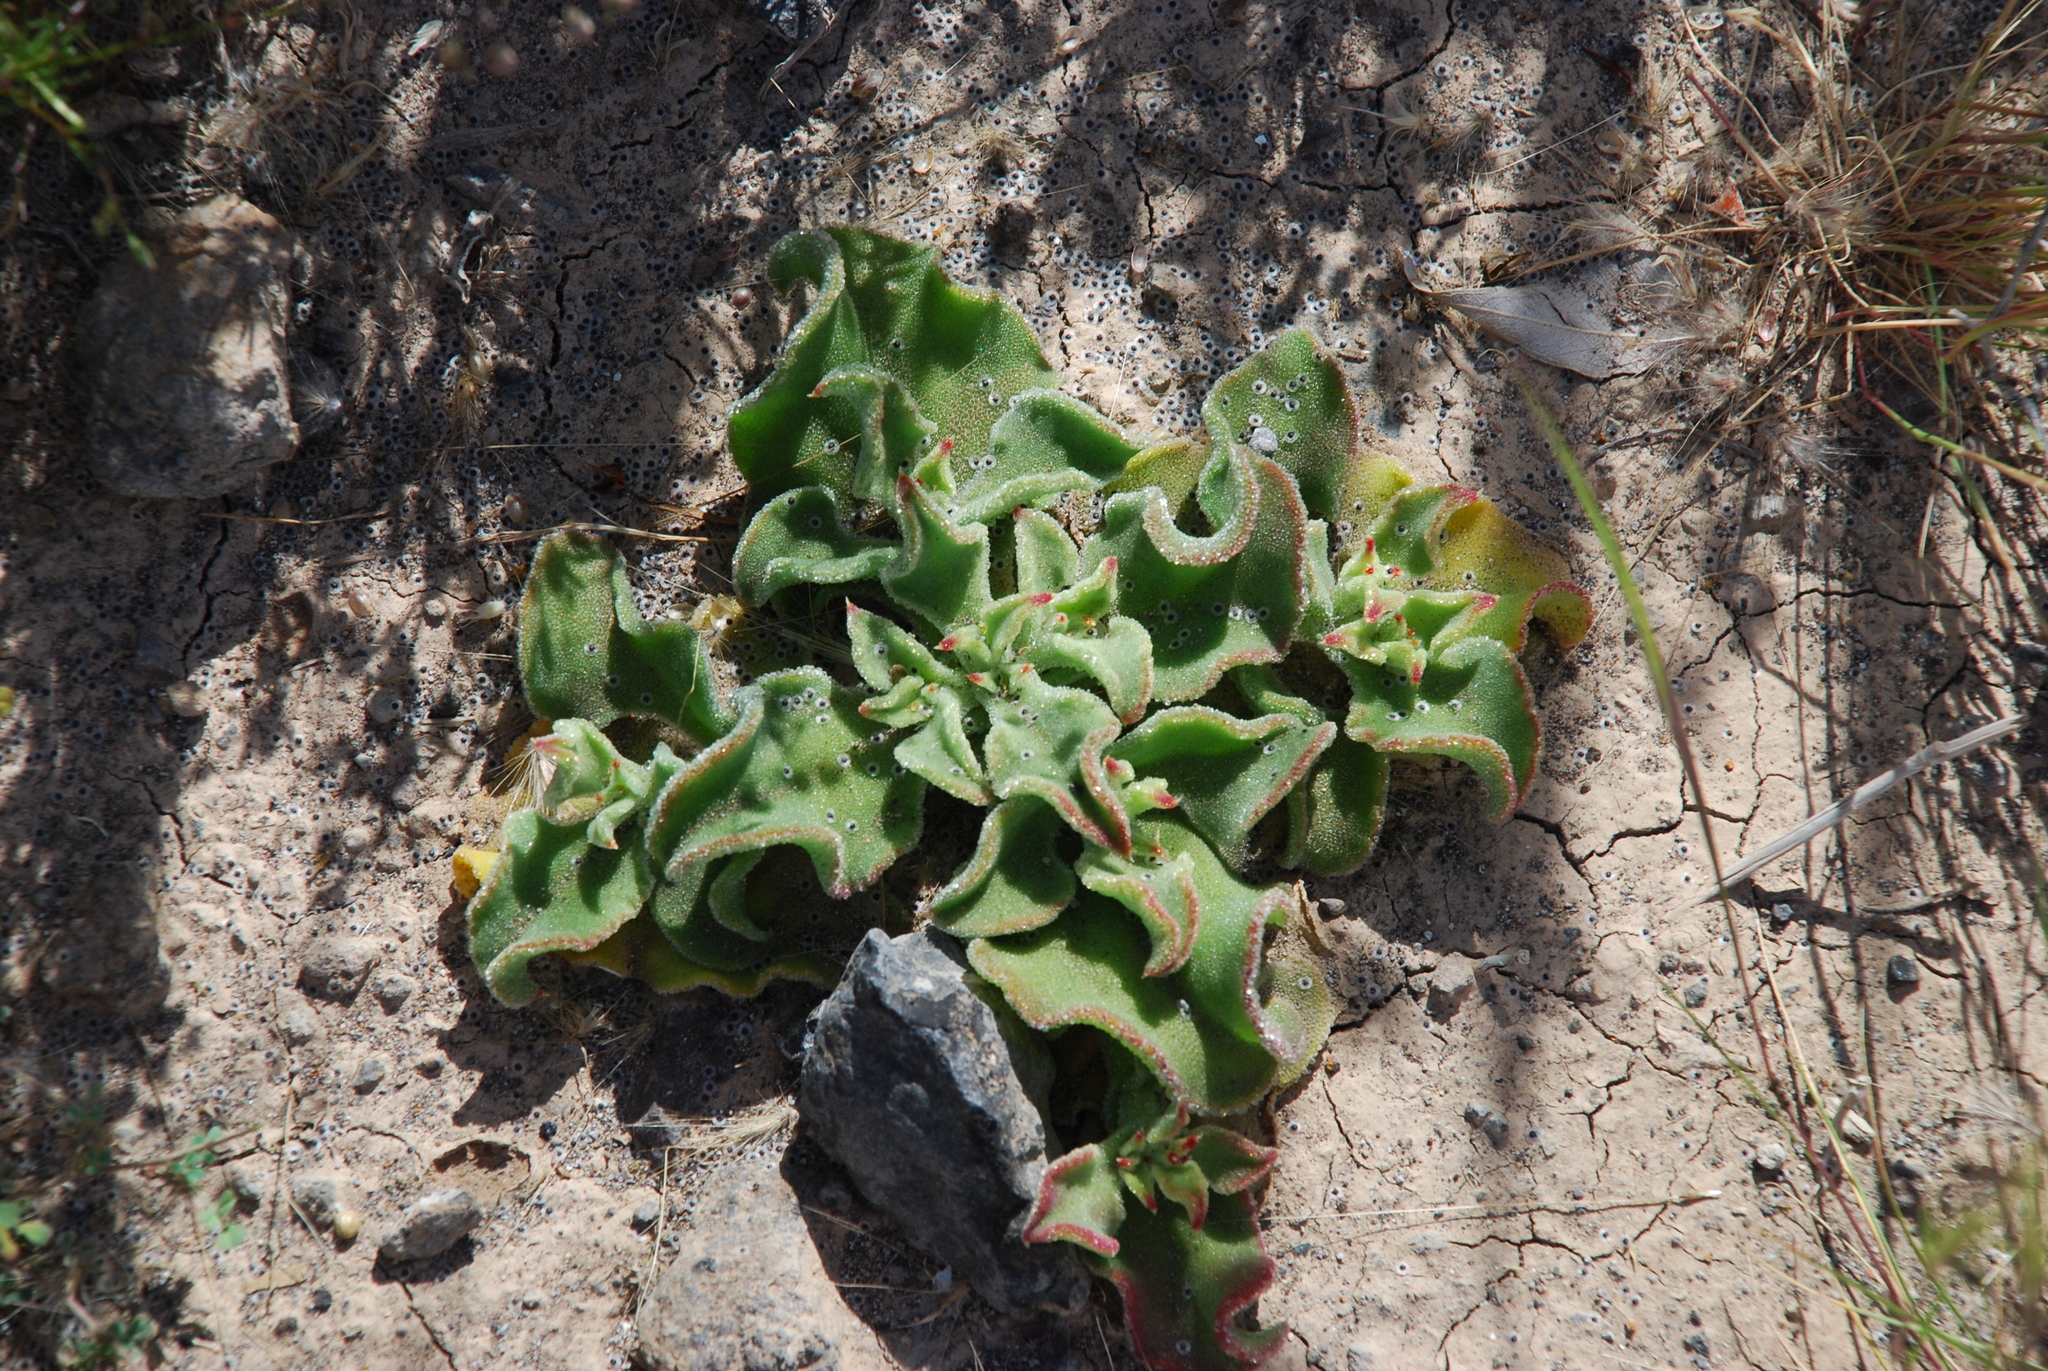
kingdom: Plantae
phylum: Tracheophyta
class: Magnoliopsida
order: Caryophyllales
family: Aizoaceae
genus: Mesembryanthemum
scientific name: Mesembryanthemum crystallinum
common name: Common iceplant
